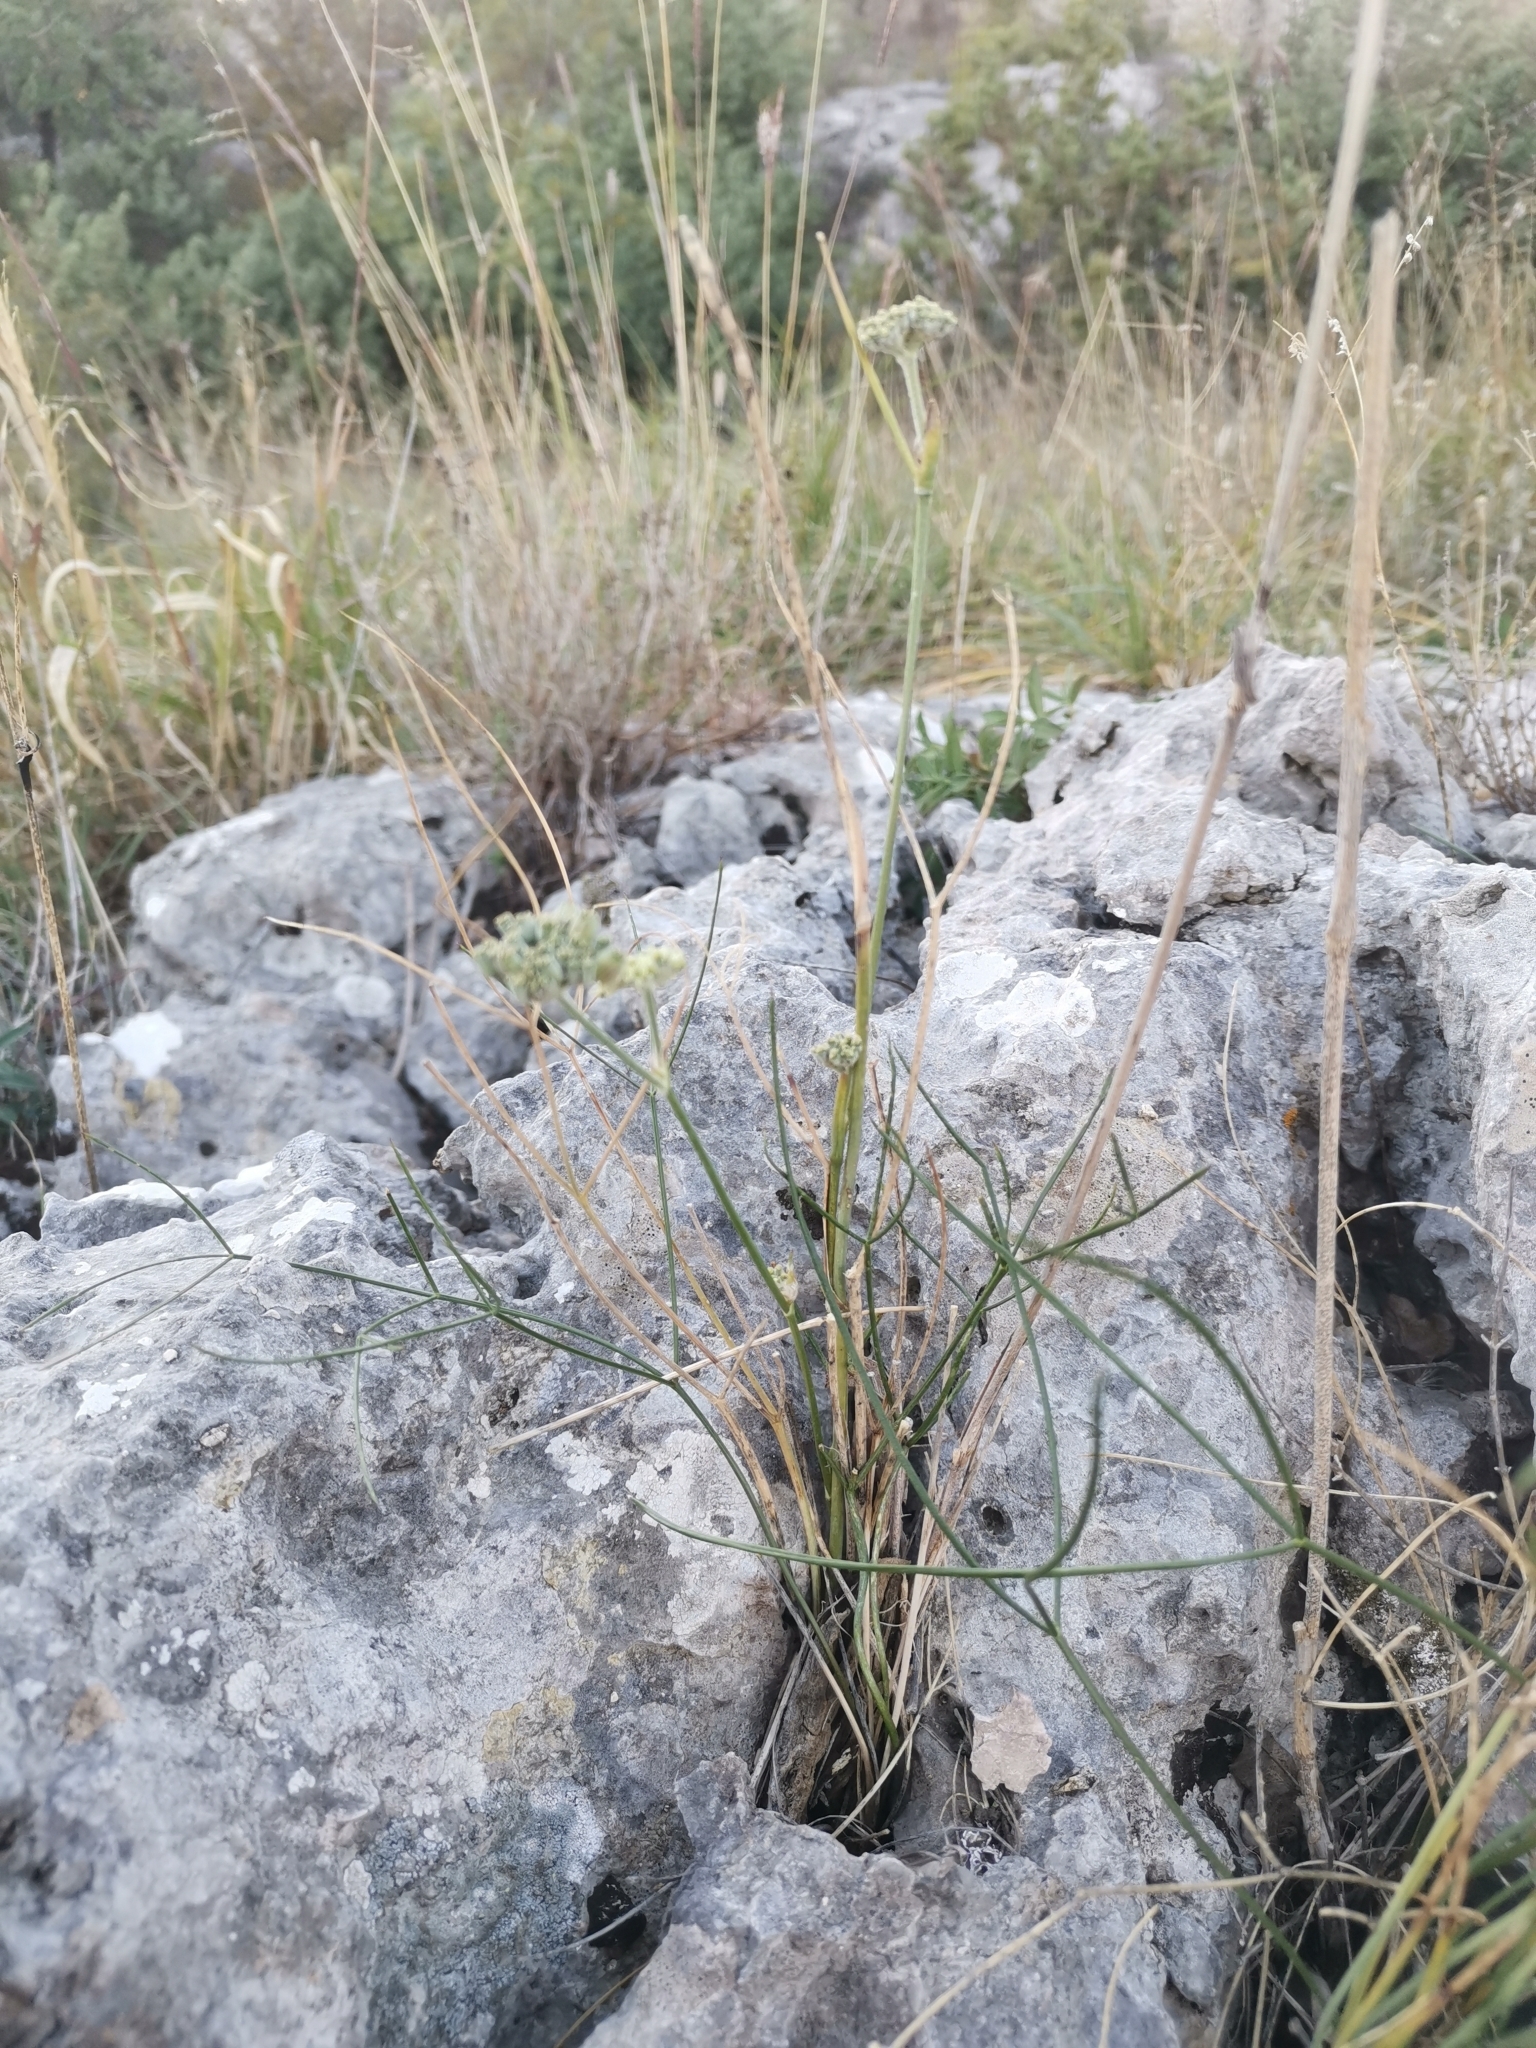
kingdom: Plantae
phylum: Tracheophyta
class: Magnoliopsida
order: Apiales
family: Apiaceae
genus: Cyathoselinum
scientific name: Cyathoselinum tomentosum
